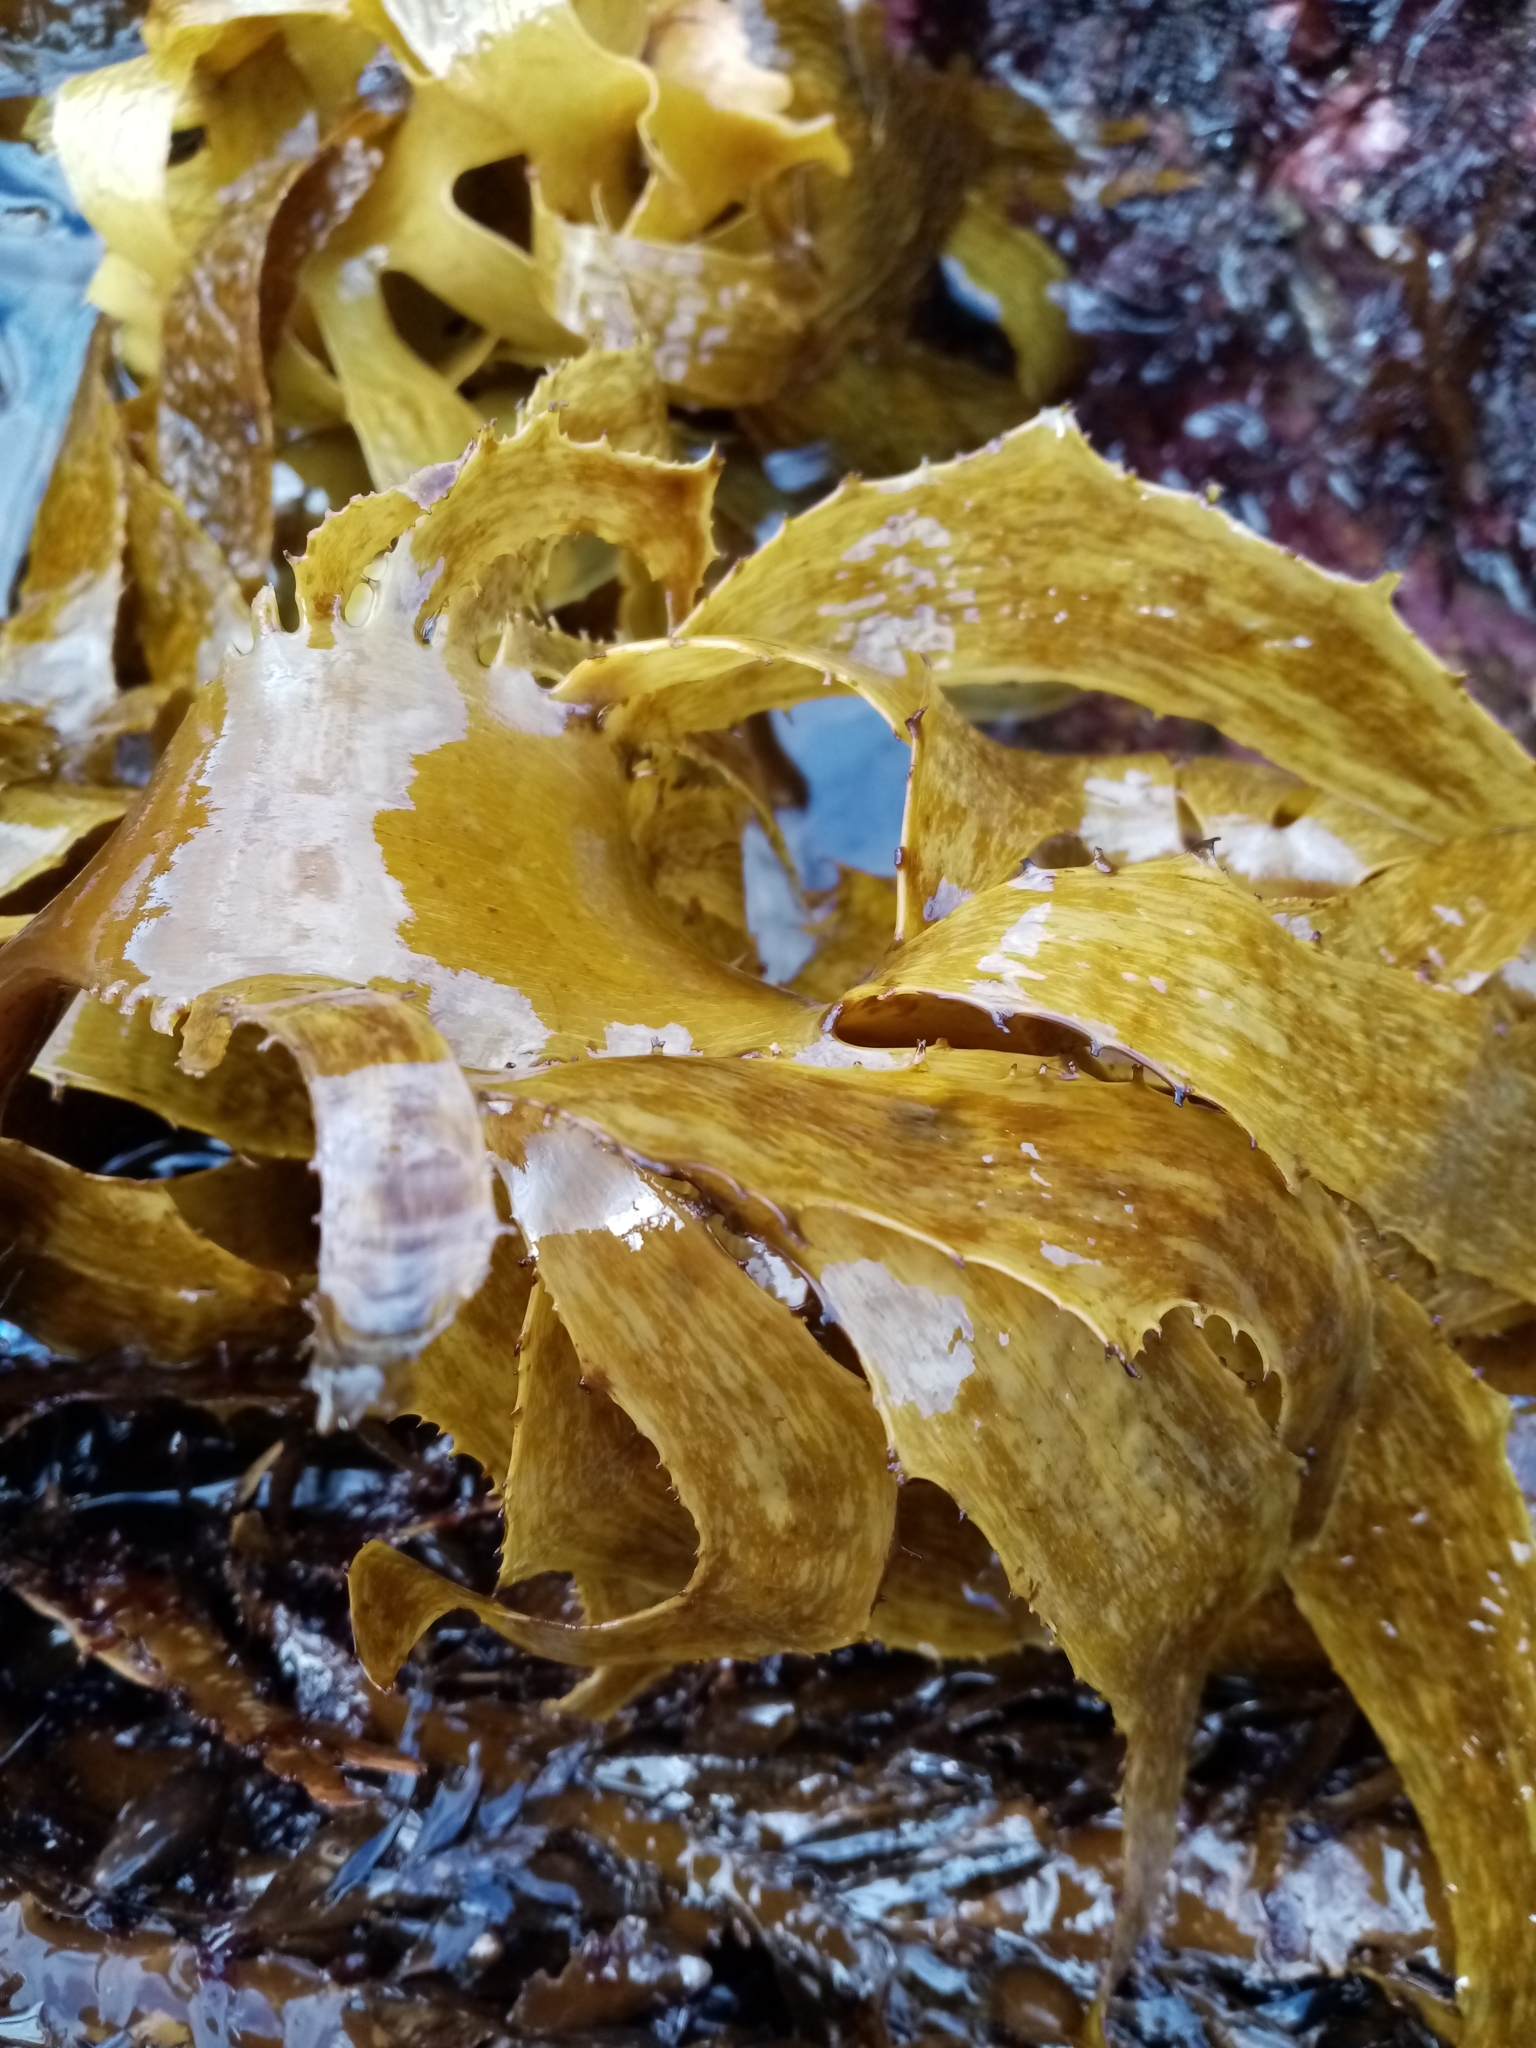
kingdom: Chromista
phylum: Ochrophyta
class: Phaeophyceae
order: Laminariales
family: Lessoniaceae
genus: Ecklonia
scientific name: Ecklonia radiata
